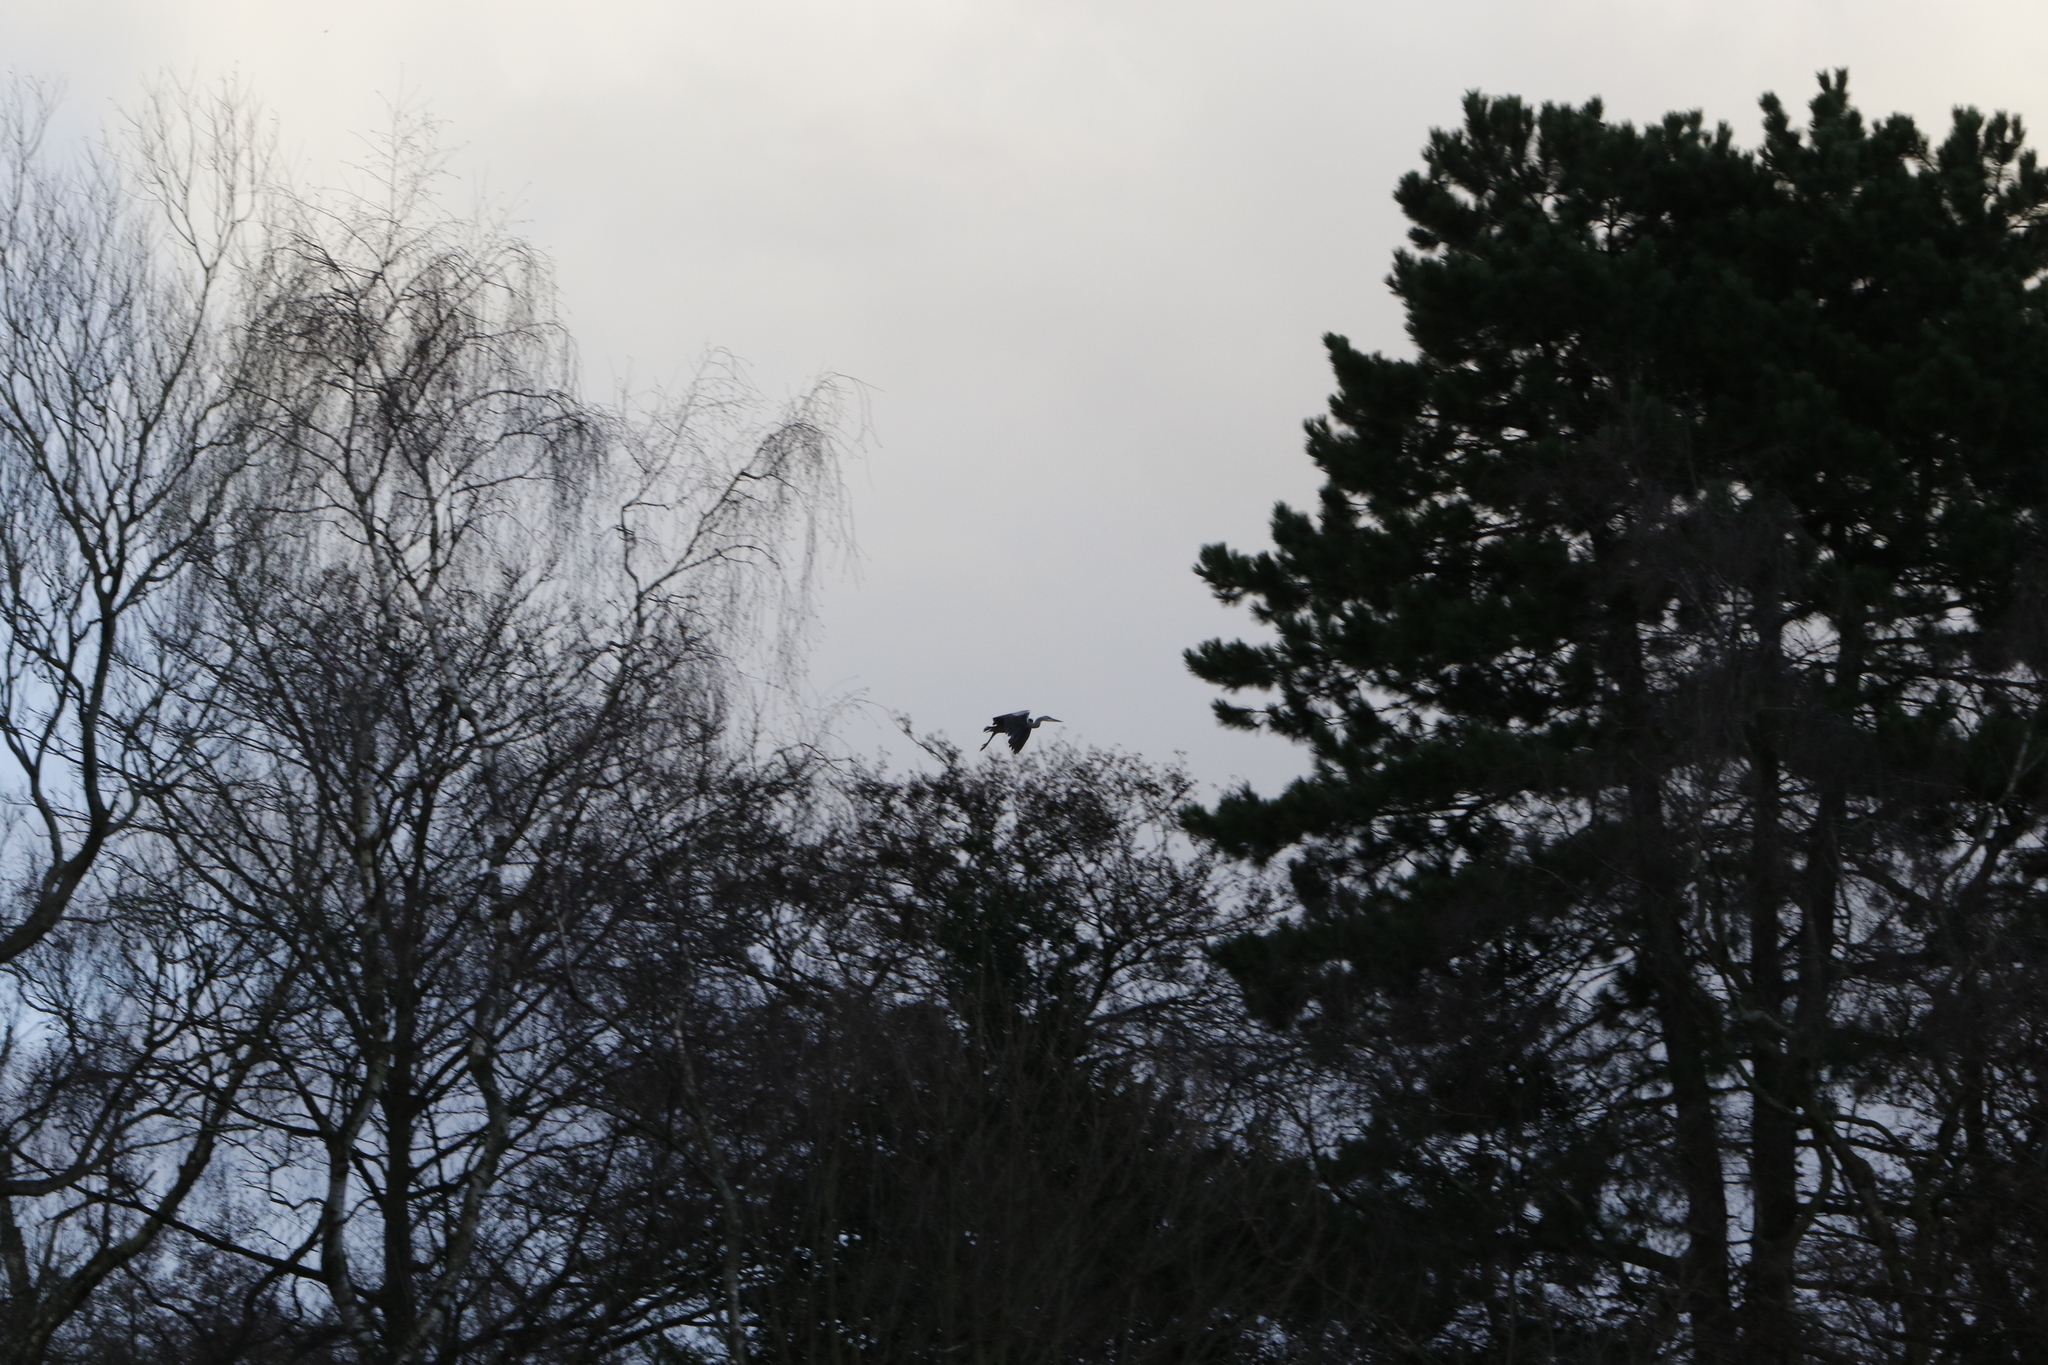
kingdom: Animalia
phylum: Chordata
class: Aves
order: Pelecaniformes
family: Ardeidae
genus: Ardea
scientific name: Ardea cinerea
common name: Grey heron
